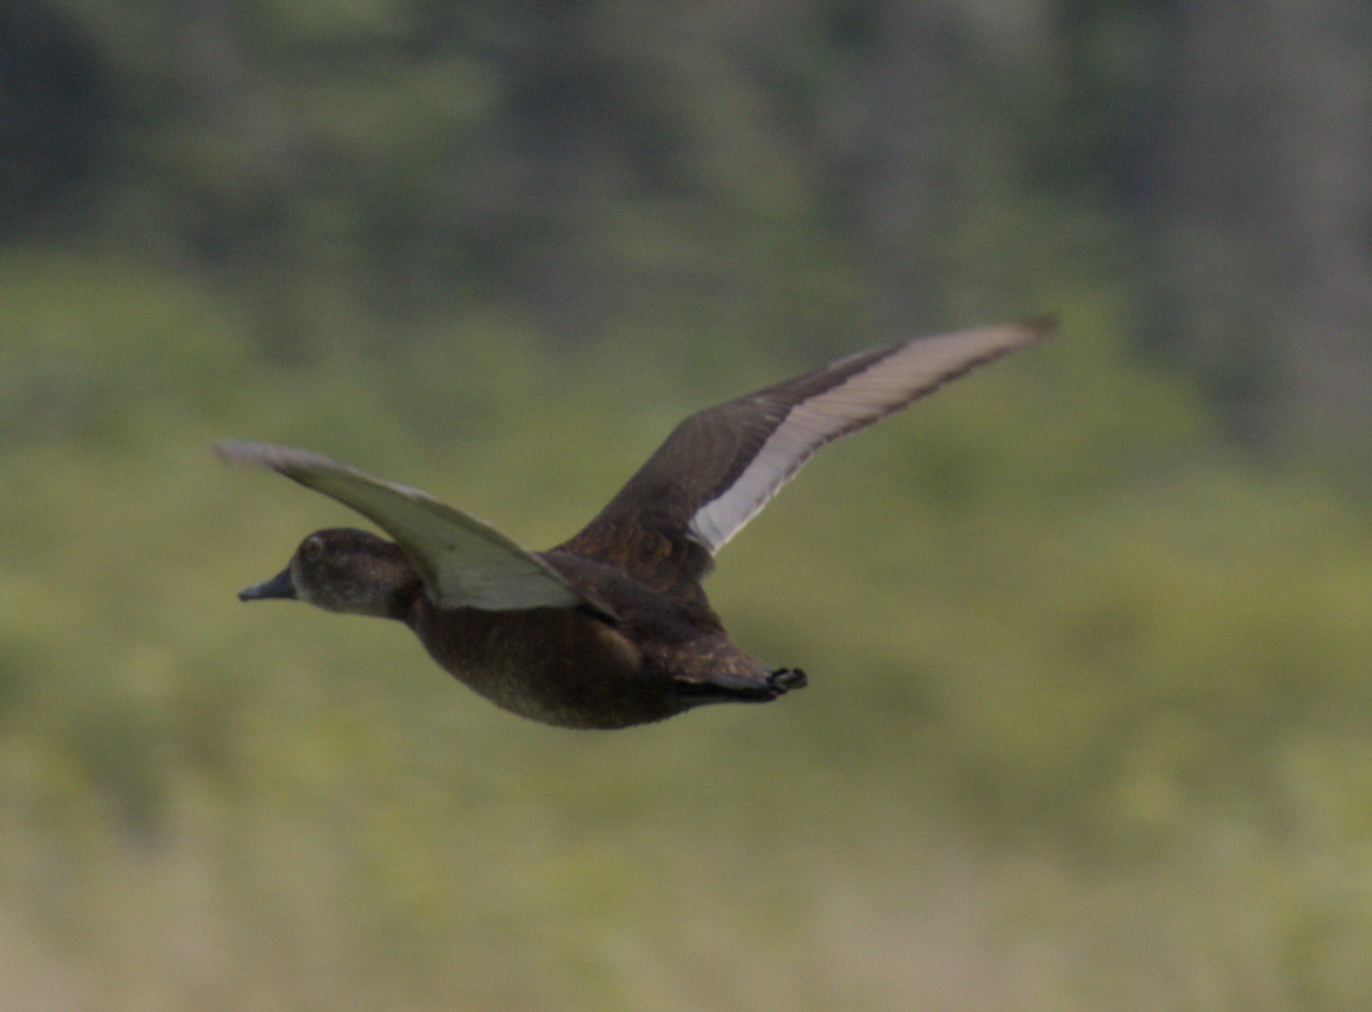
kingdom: Animalia
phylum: Chordata
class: Aves
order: Anseriformes
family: Anatidae
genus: Aythya
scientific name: Aythya collaris
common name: Ring-necked duck
